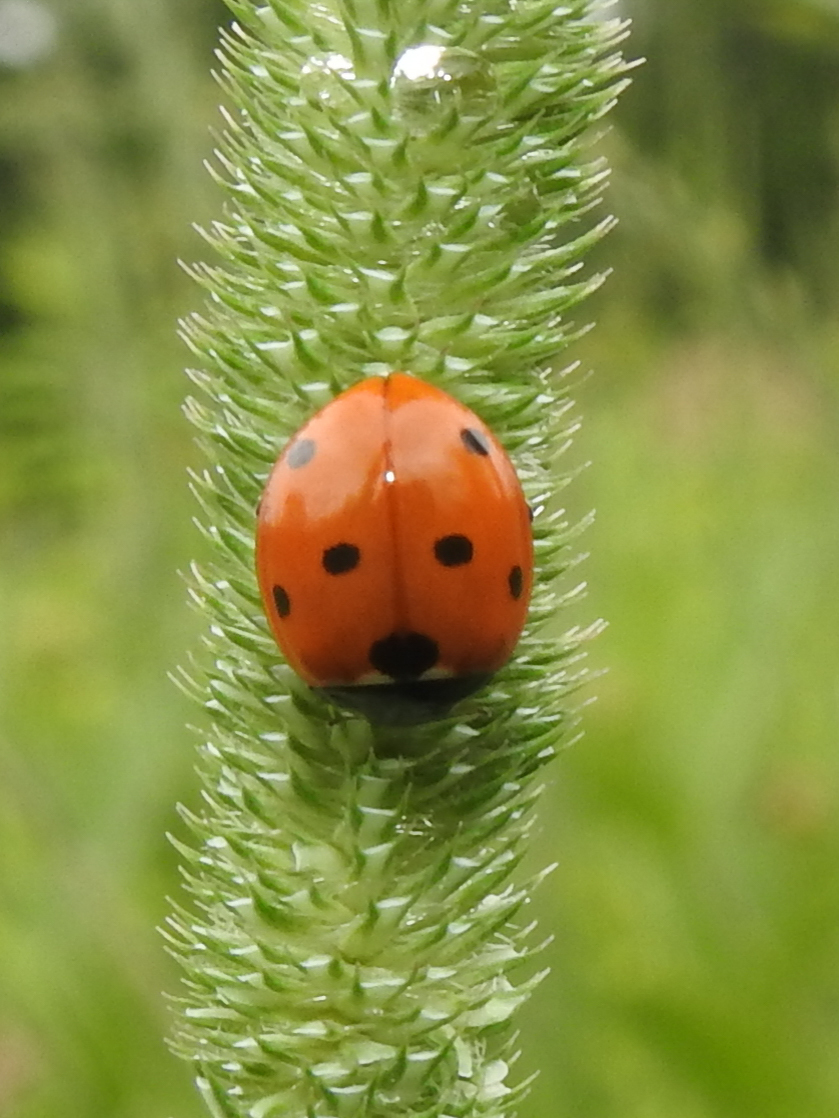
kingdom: Animalia
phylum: Arthropoda
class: Insecta
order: Coleoptera
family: Coccinellidae
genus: Coccinella
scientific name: Coccinella septempunctata
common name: Sevenspotted lady beetle
